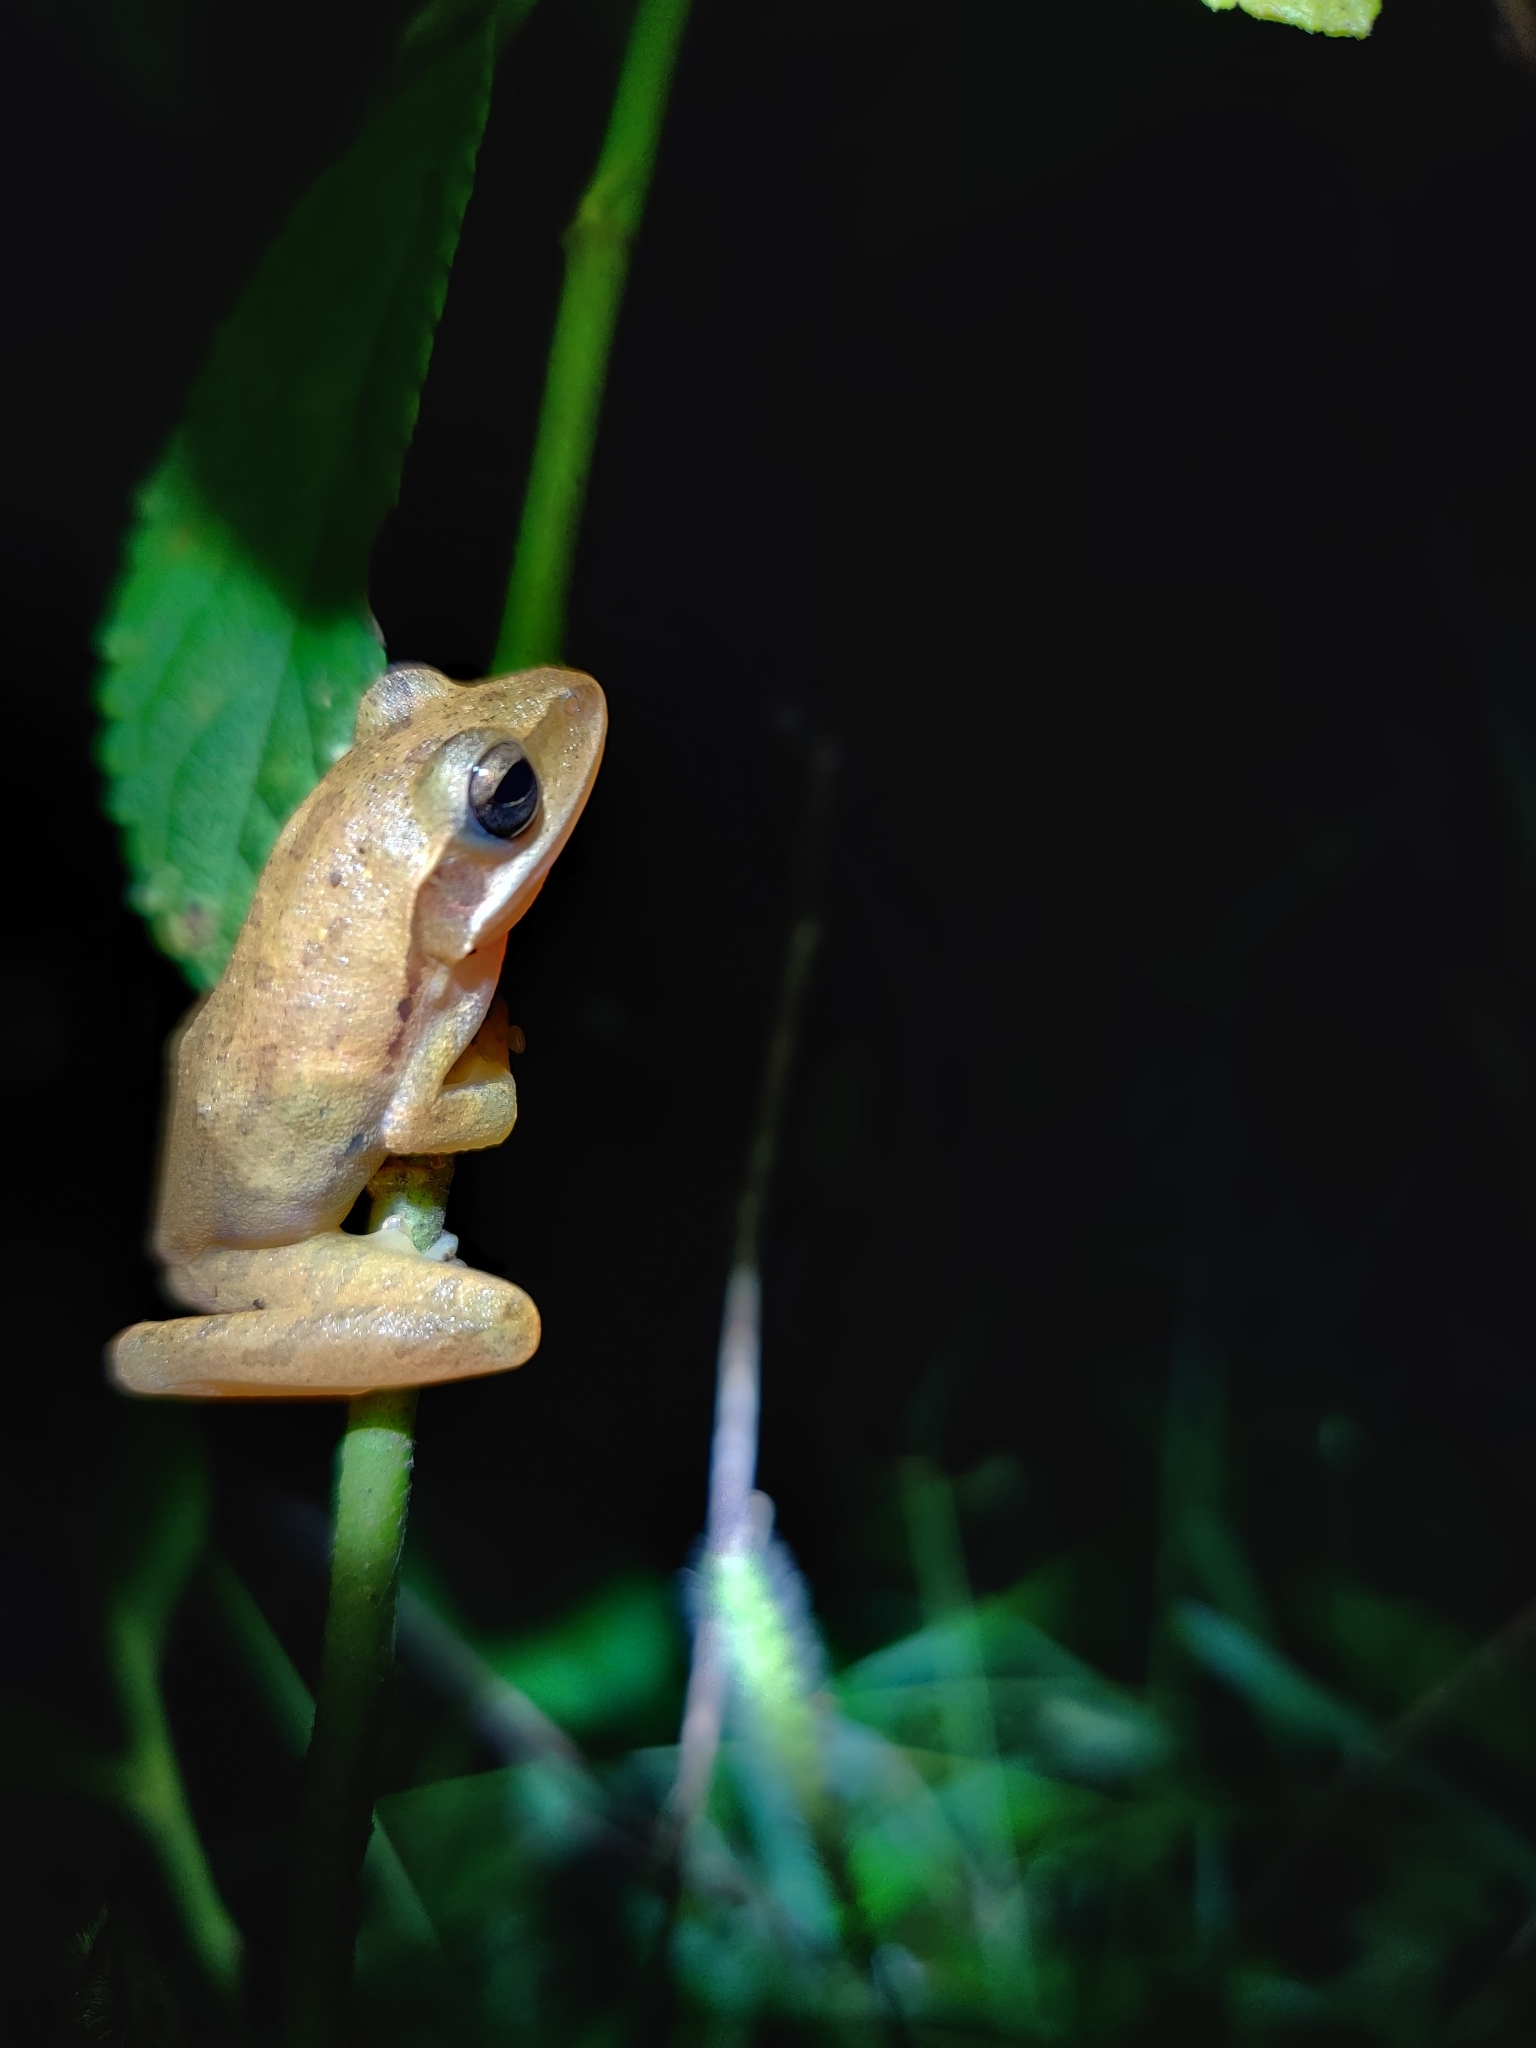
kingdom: Animalia
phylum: Chordata
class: Amphibia
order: Anura
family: Rhacophoridae
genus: Polypedates
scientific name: Polypedates maculatus
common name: Himalayan tree frog
